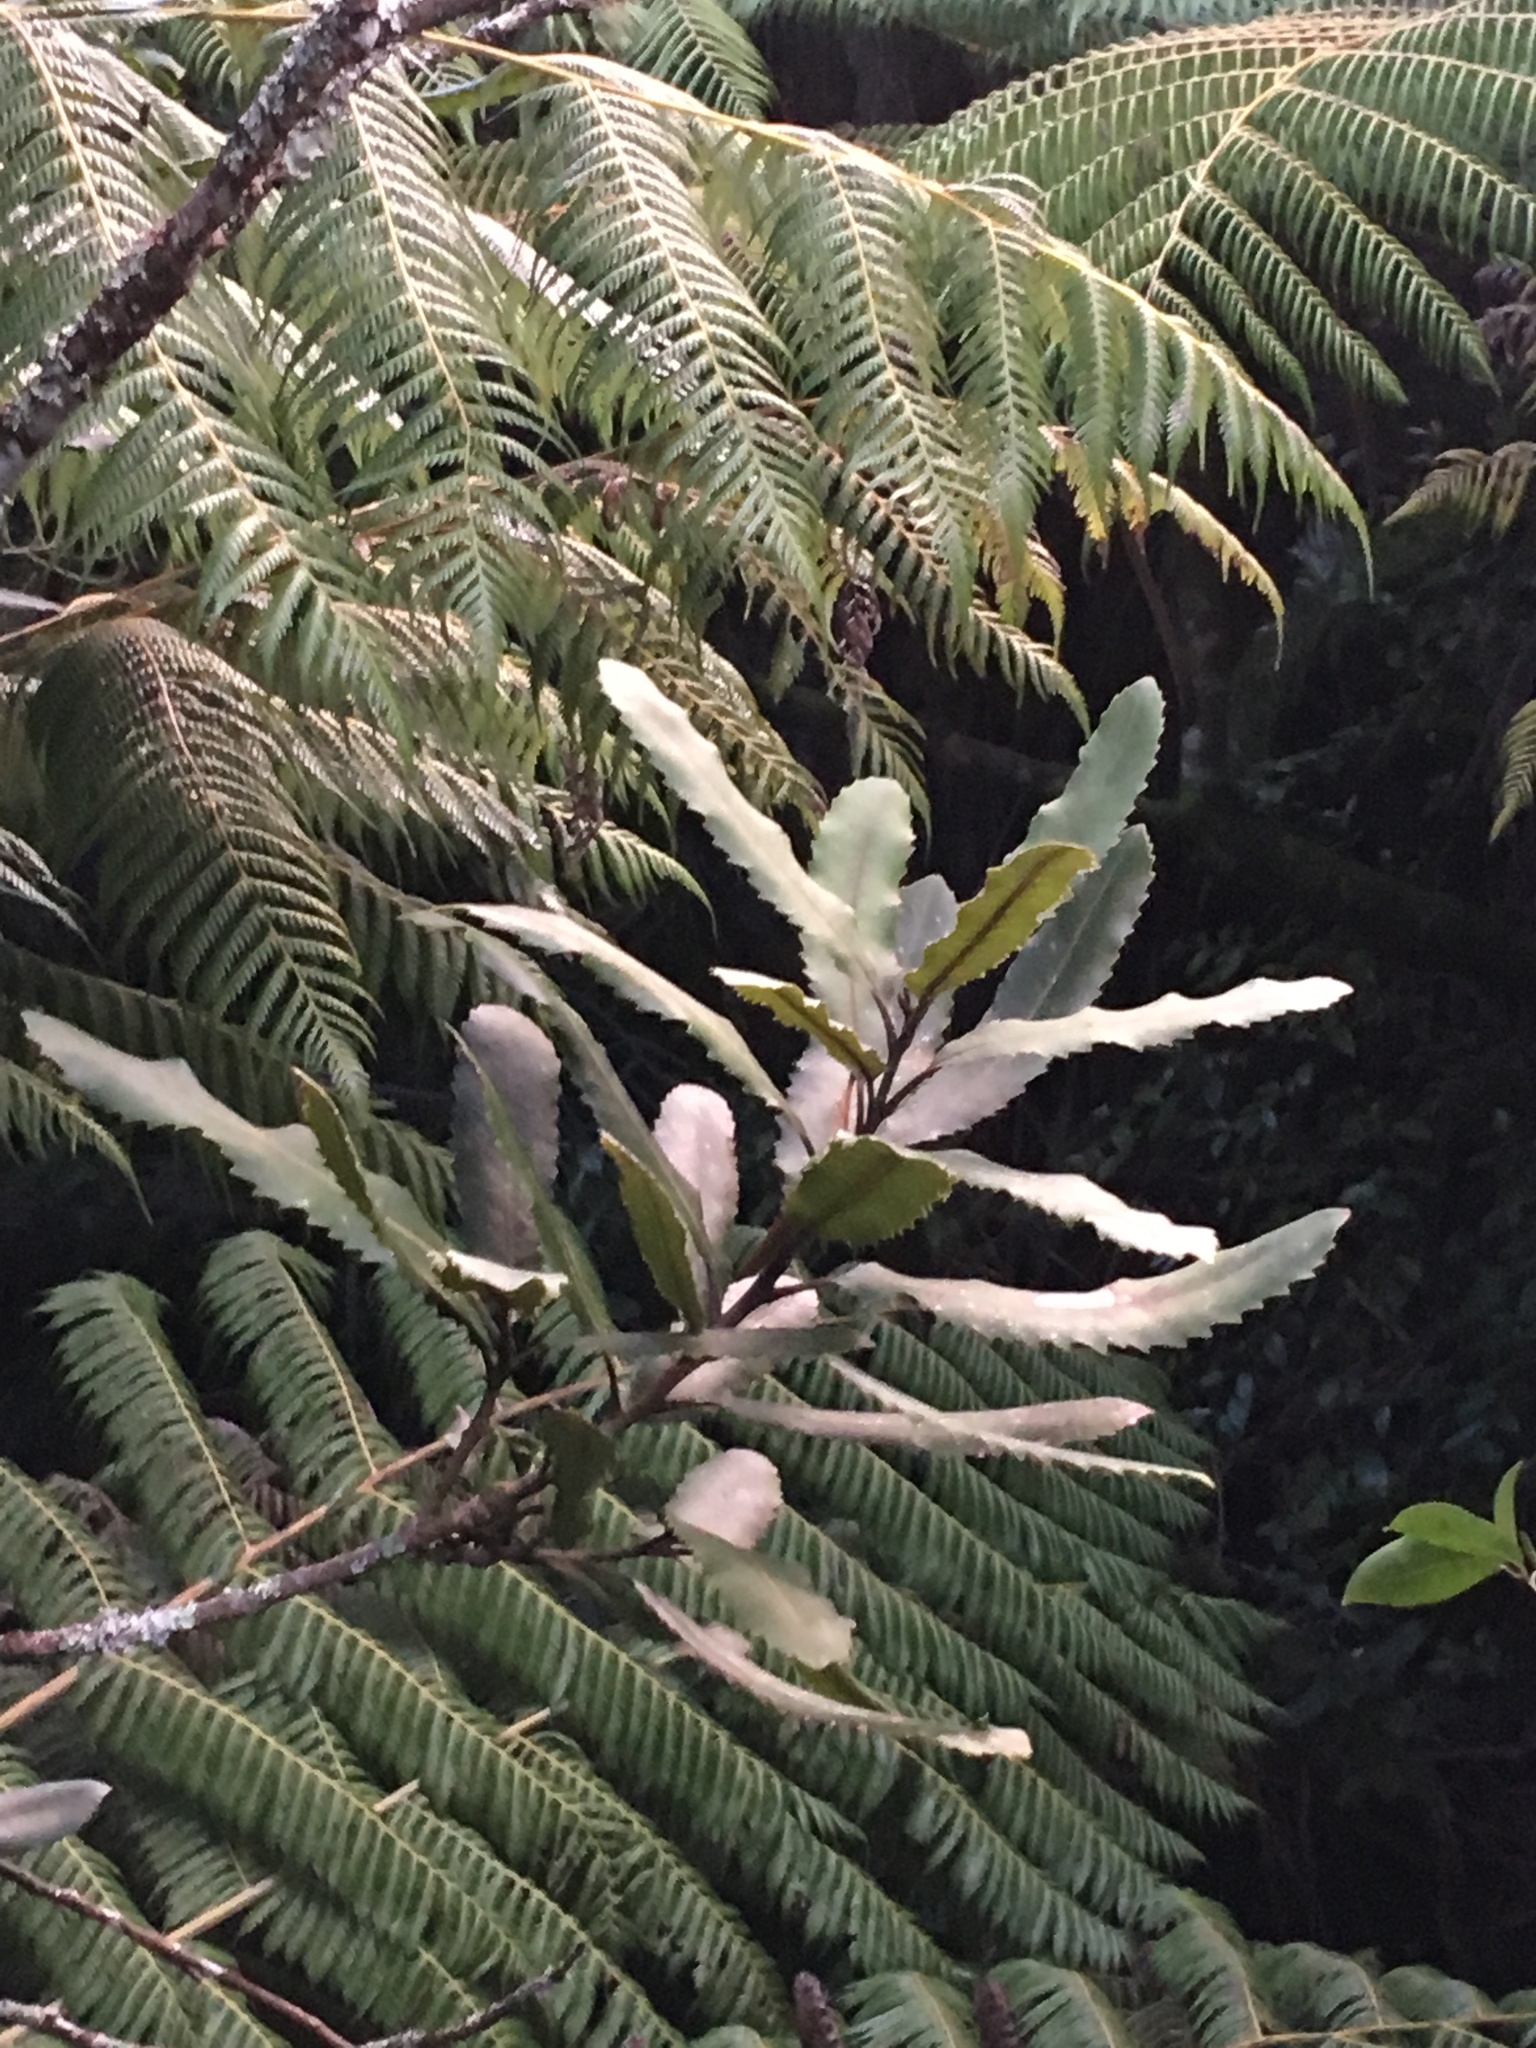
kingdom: Plantae
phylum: Tracheophyta
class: Magnoliopsida
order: Proteales
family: Proteaceae
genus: Knightia
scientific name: Knightia excelsa
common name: New zealand-honeysuckle
